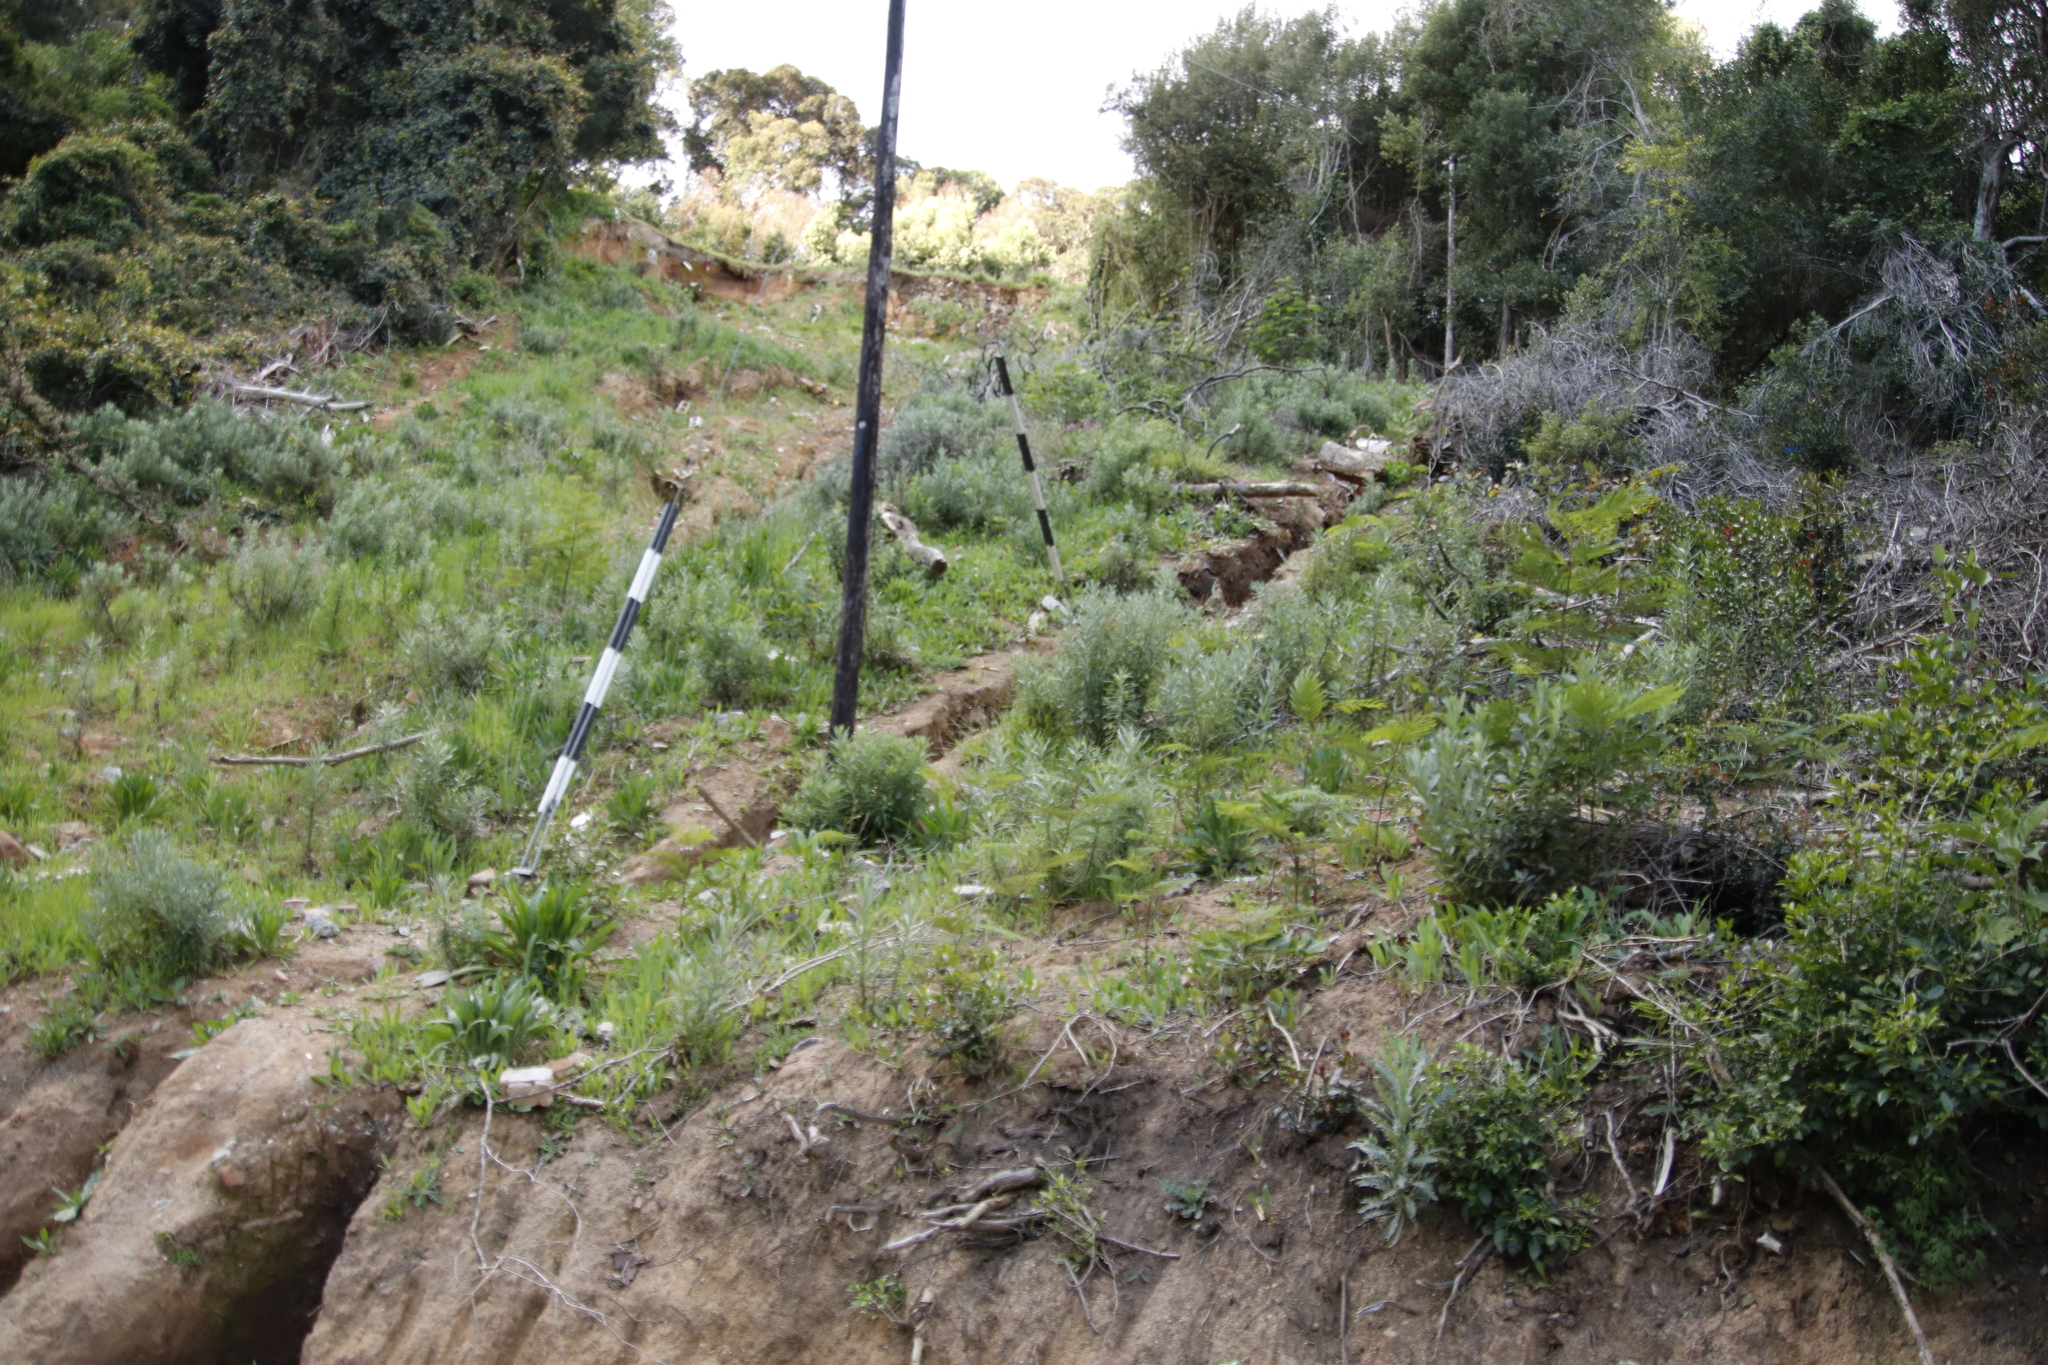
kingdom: Plantae
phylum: Tracheophyta
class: Magnoliopsida
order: Asterales
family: Asteraceae
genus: Senecio
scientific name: Senecio pterophorus
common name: Shoddy ragwort
